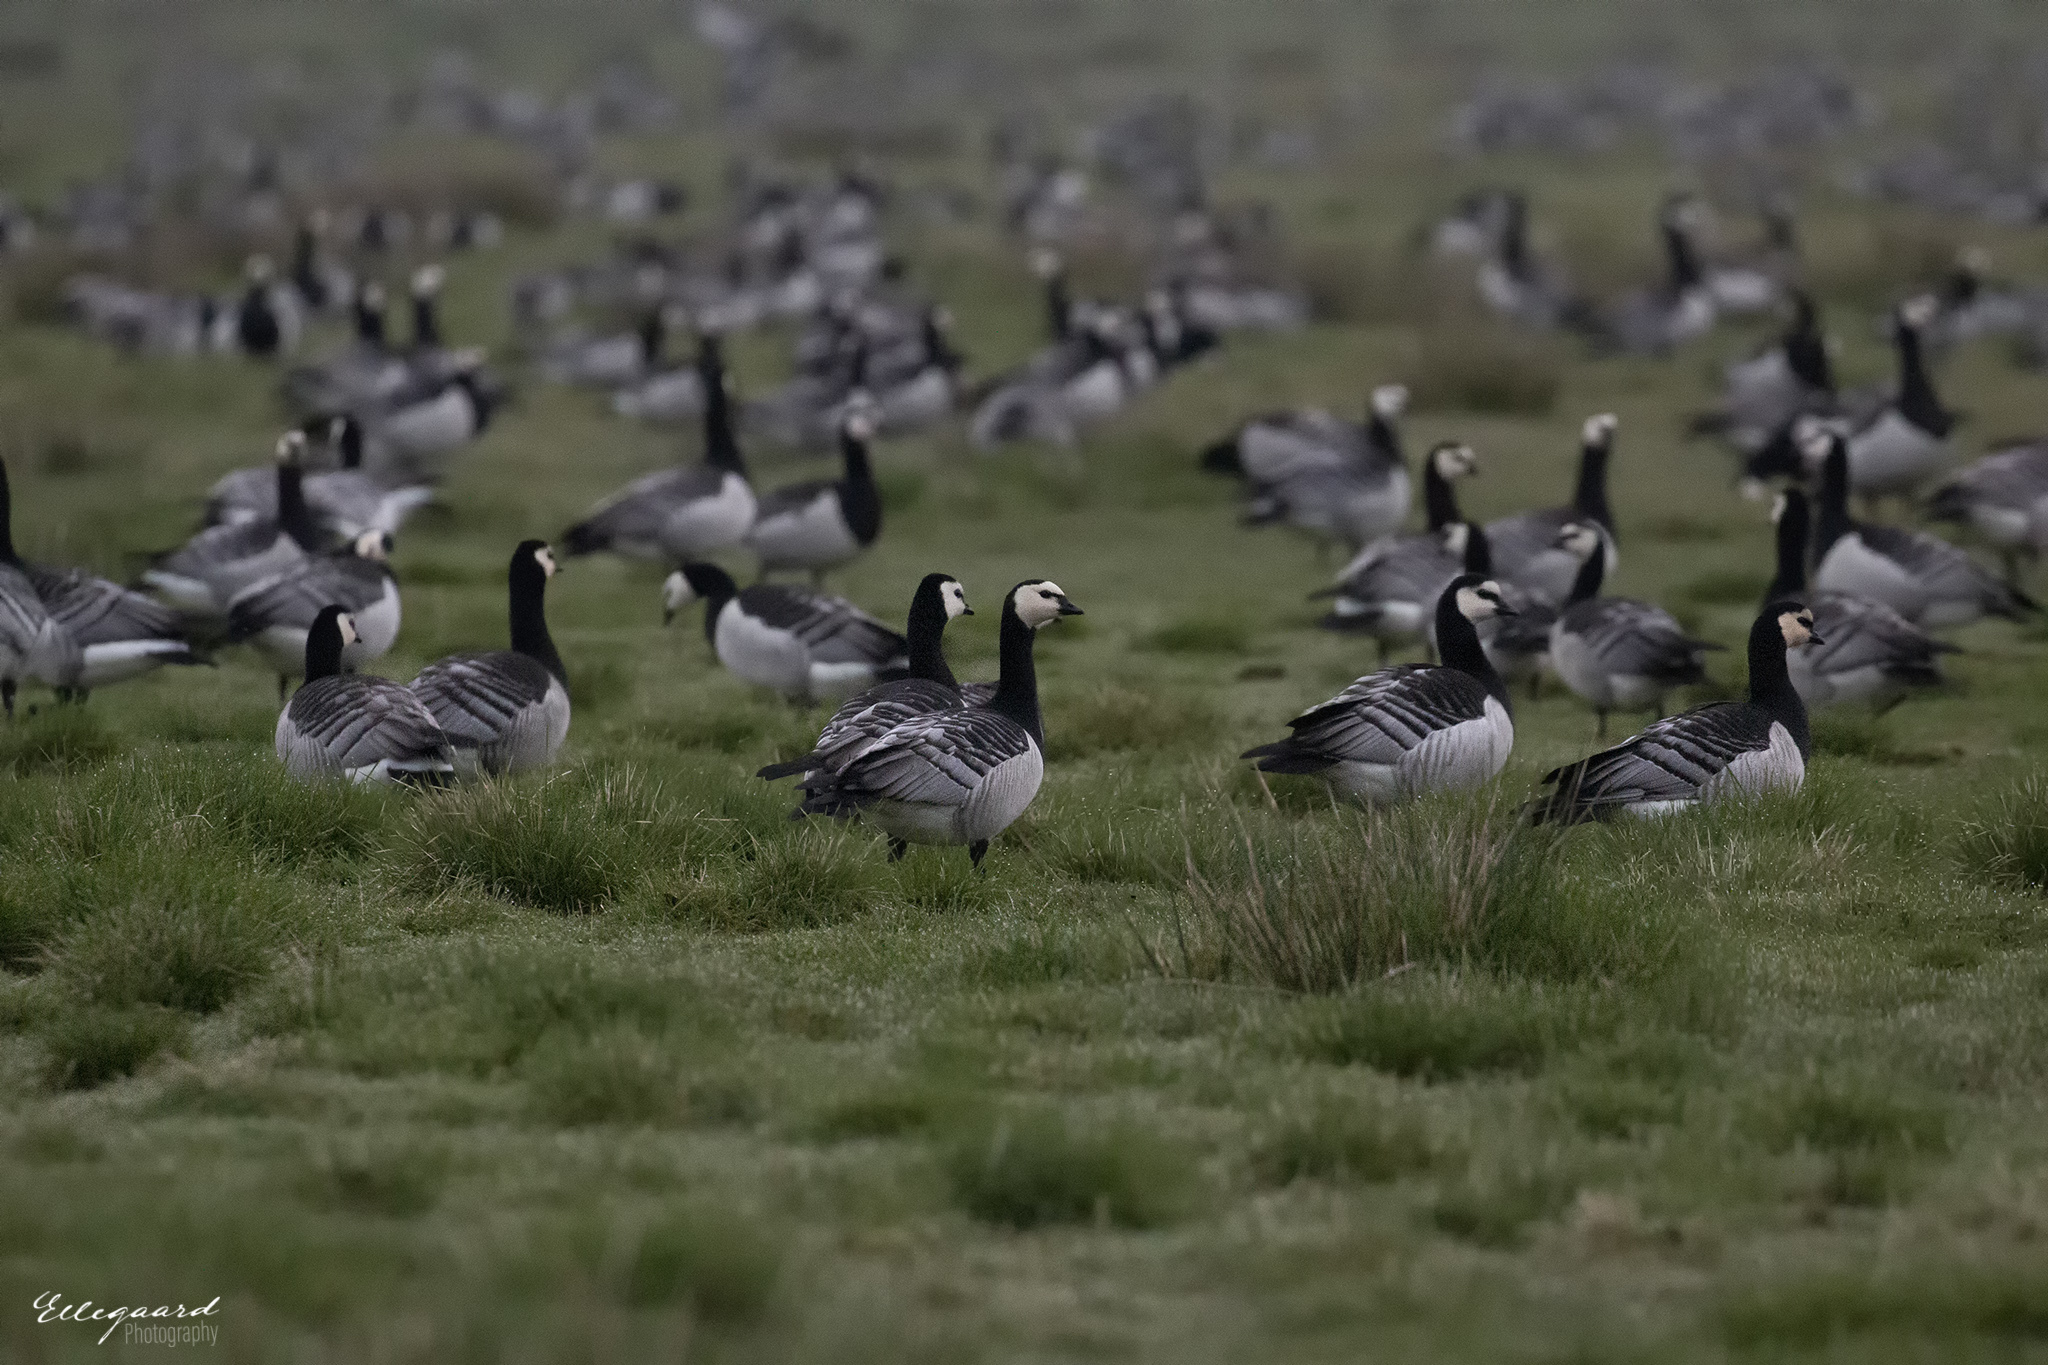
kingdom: Animalia
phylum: Chordata
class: Aves
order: Anseriformes
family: Anatidae
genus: Branta
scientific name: Branta leucopsis
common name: Barnacle goose
